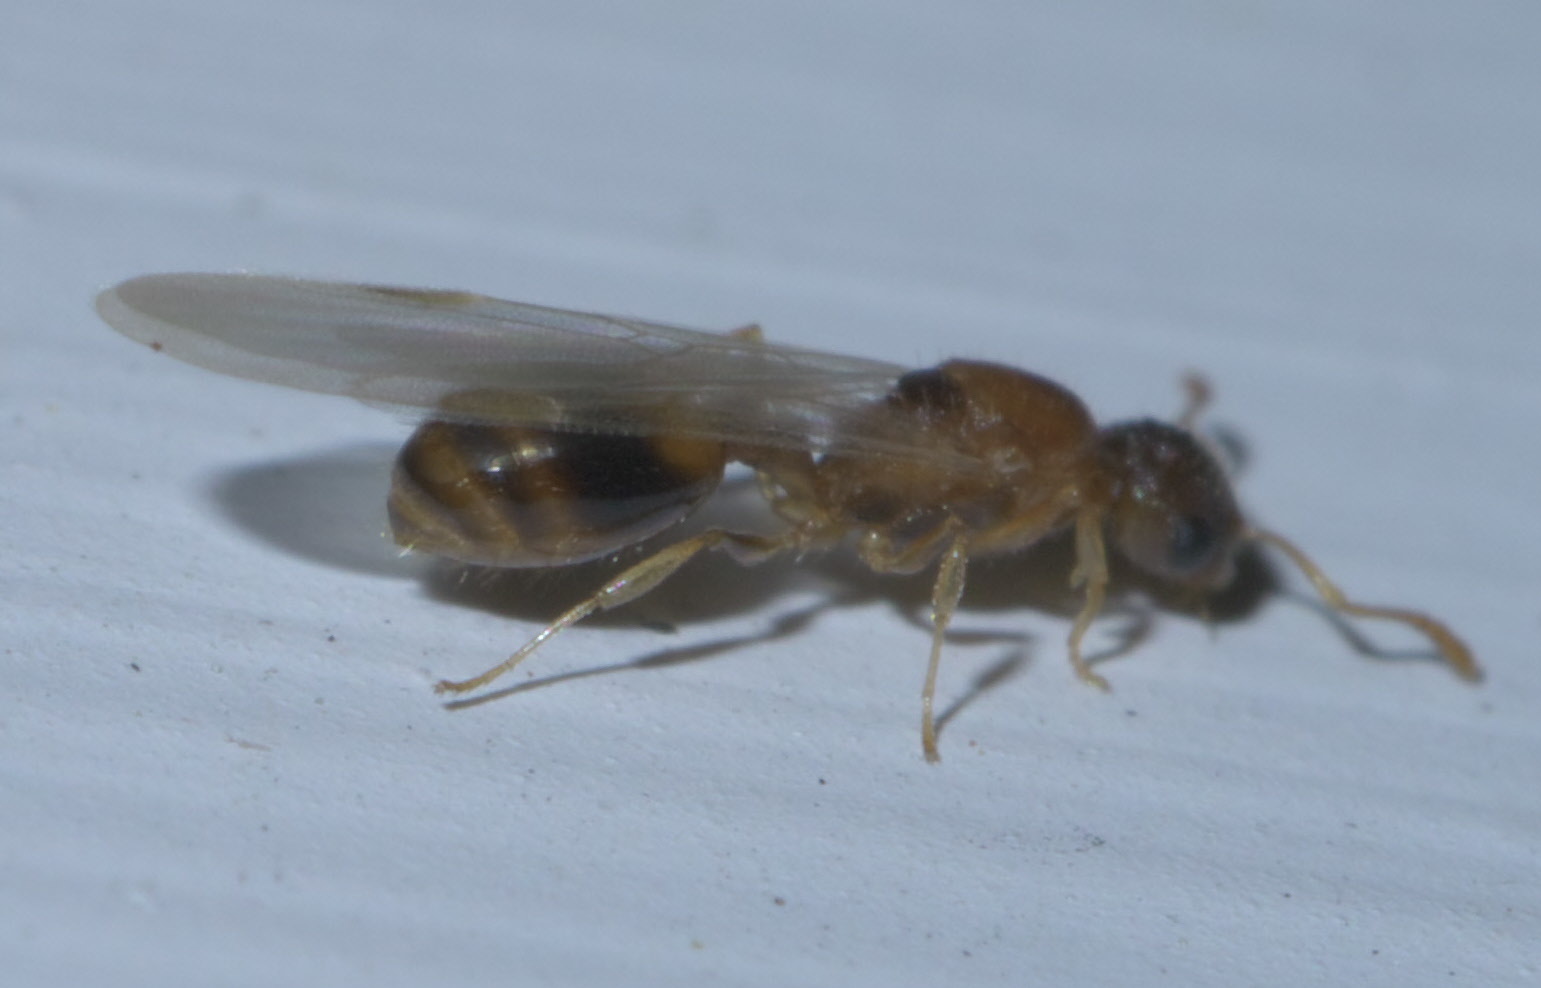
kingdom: Animalia
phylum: Arthropoda
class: Insecta
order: Hymenoptera
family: Formicidae
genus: Temnothorax
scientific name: Temnothorax curvispinosus
